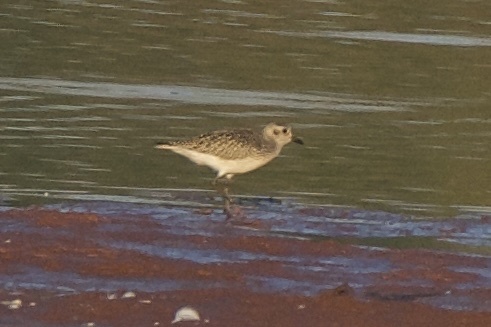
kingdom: Animalia
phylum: Chordata
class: Aves
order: Charadriiformes
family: Charadriidae
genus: Pluvialis
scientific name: Pluvialis dominica
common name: American golden plover
